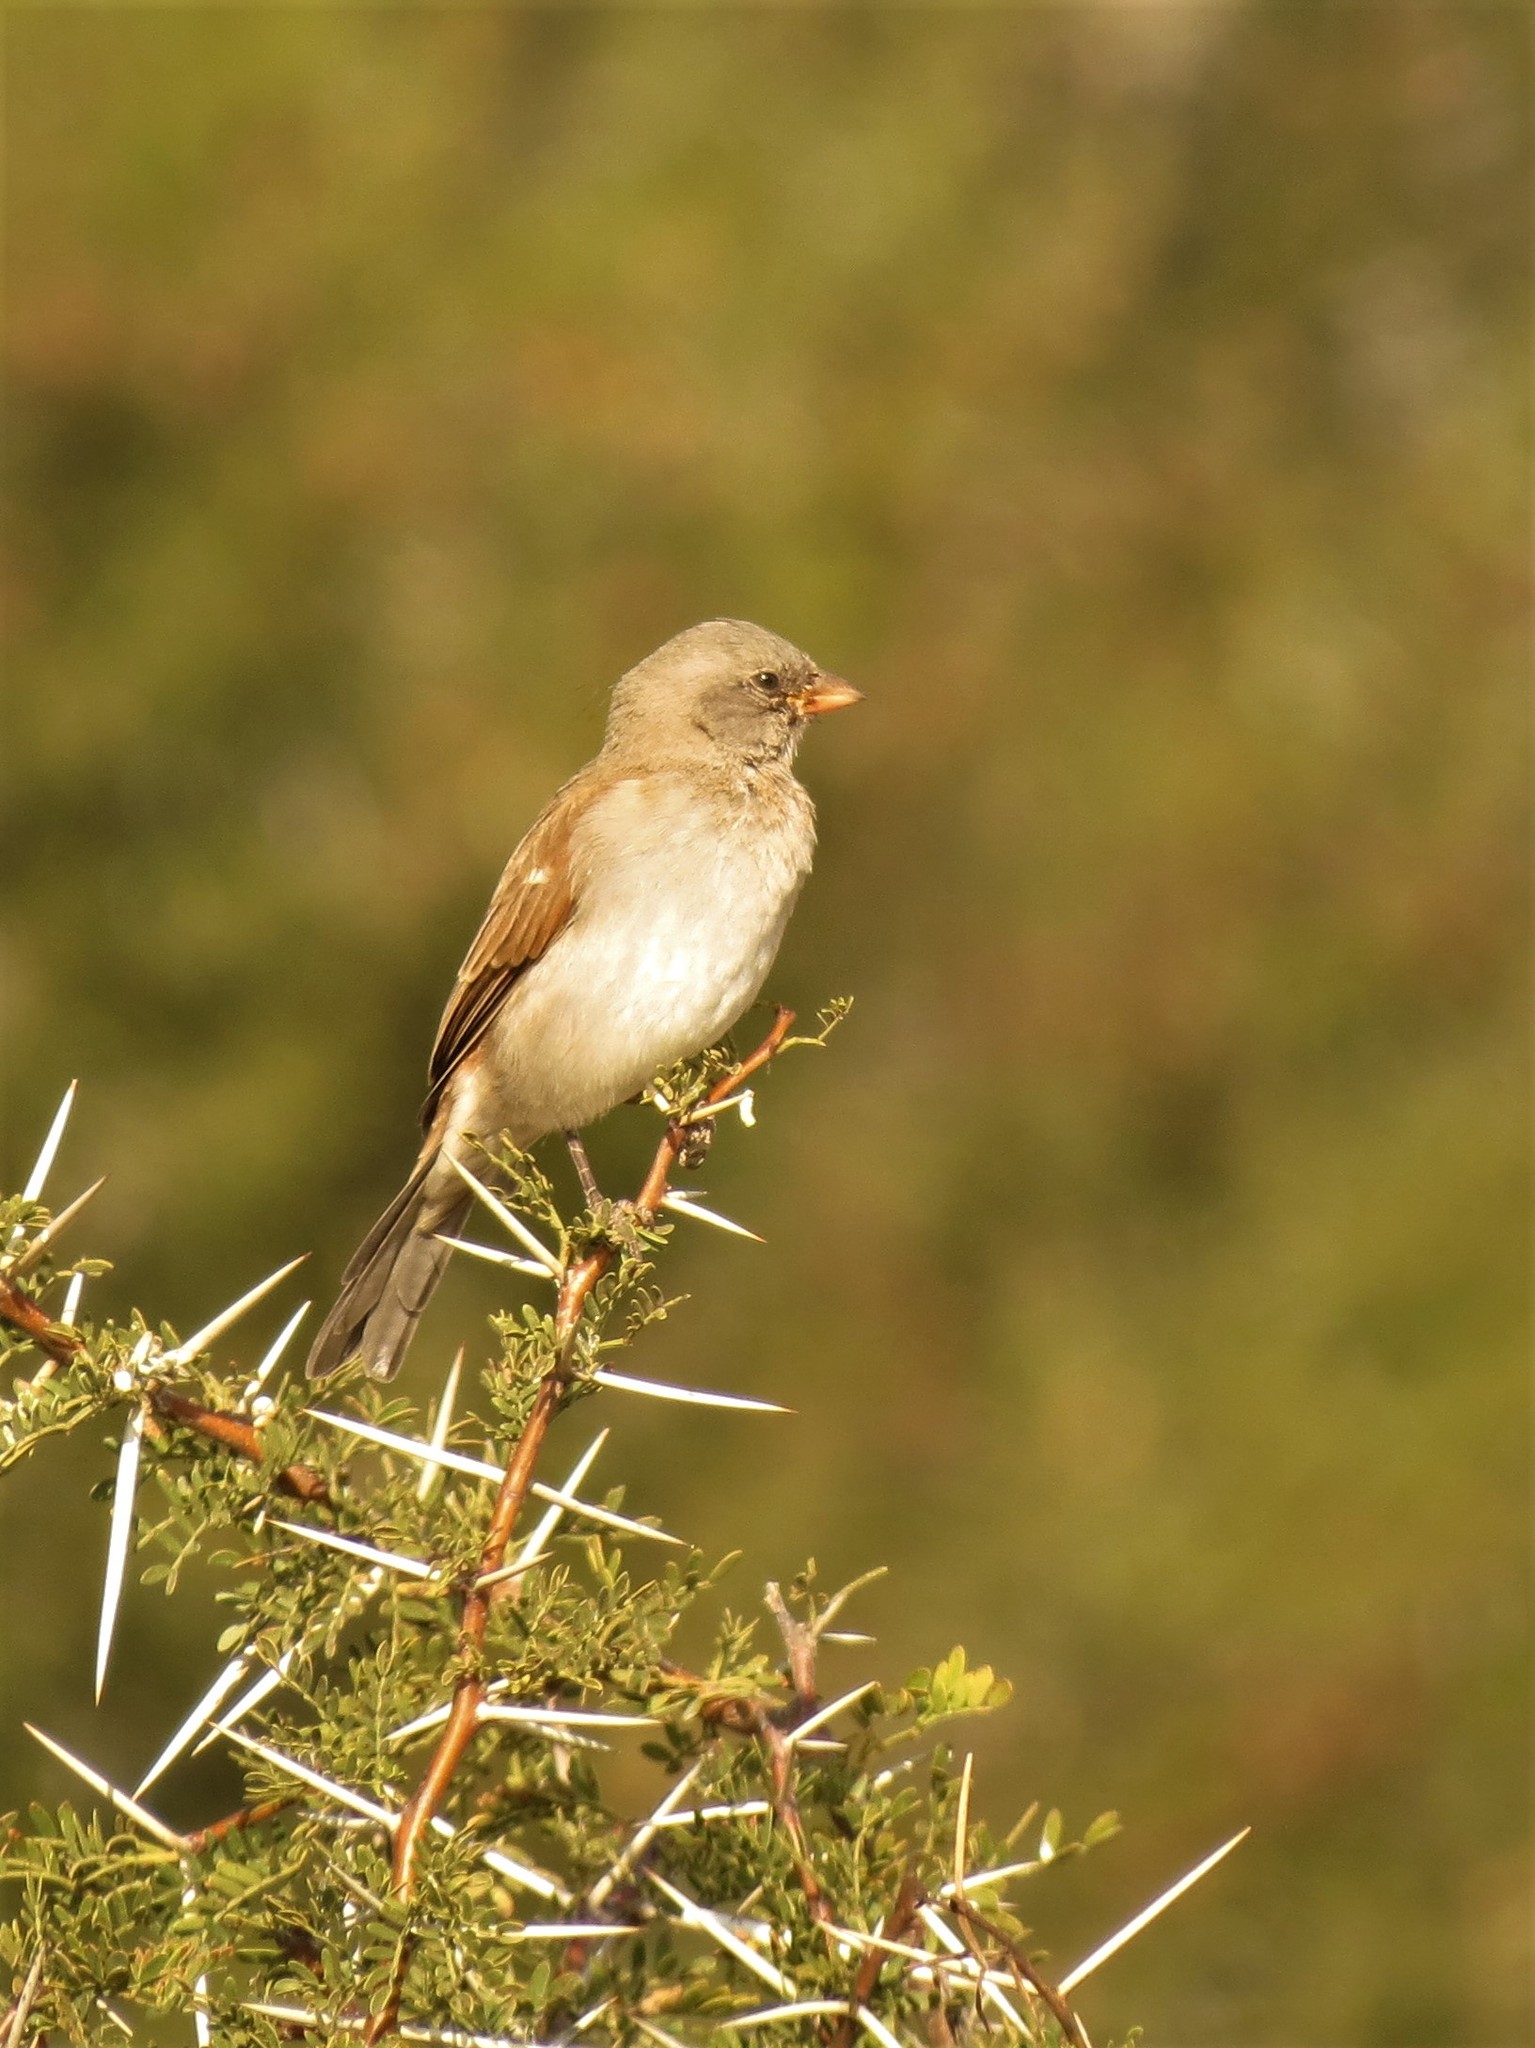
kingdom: Animalia
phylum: Chordata
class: Aves
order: Passeriformes
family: Passeridae
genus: Passer
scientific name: Passer diffusus
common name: Southern grey-headed sparrow
